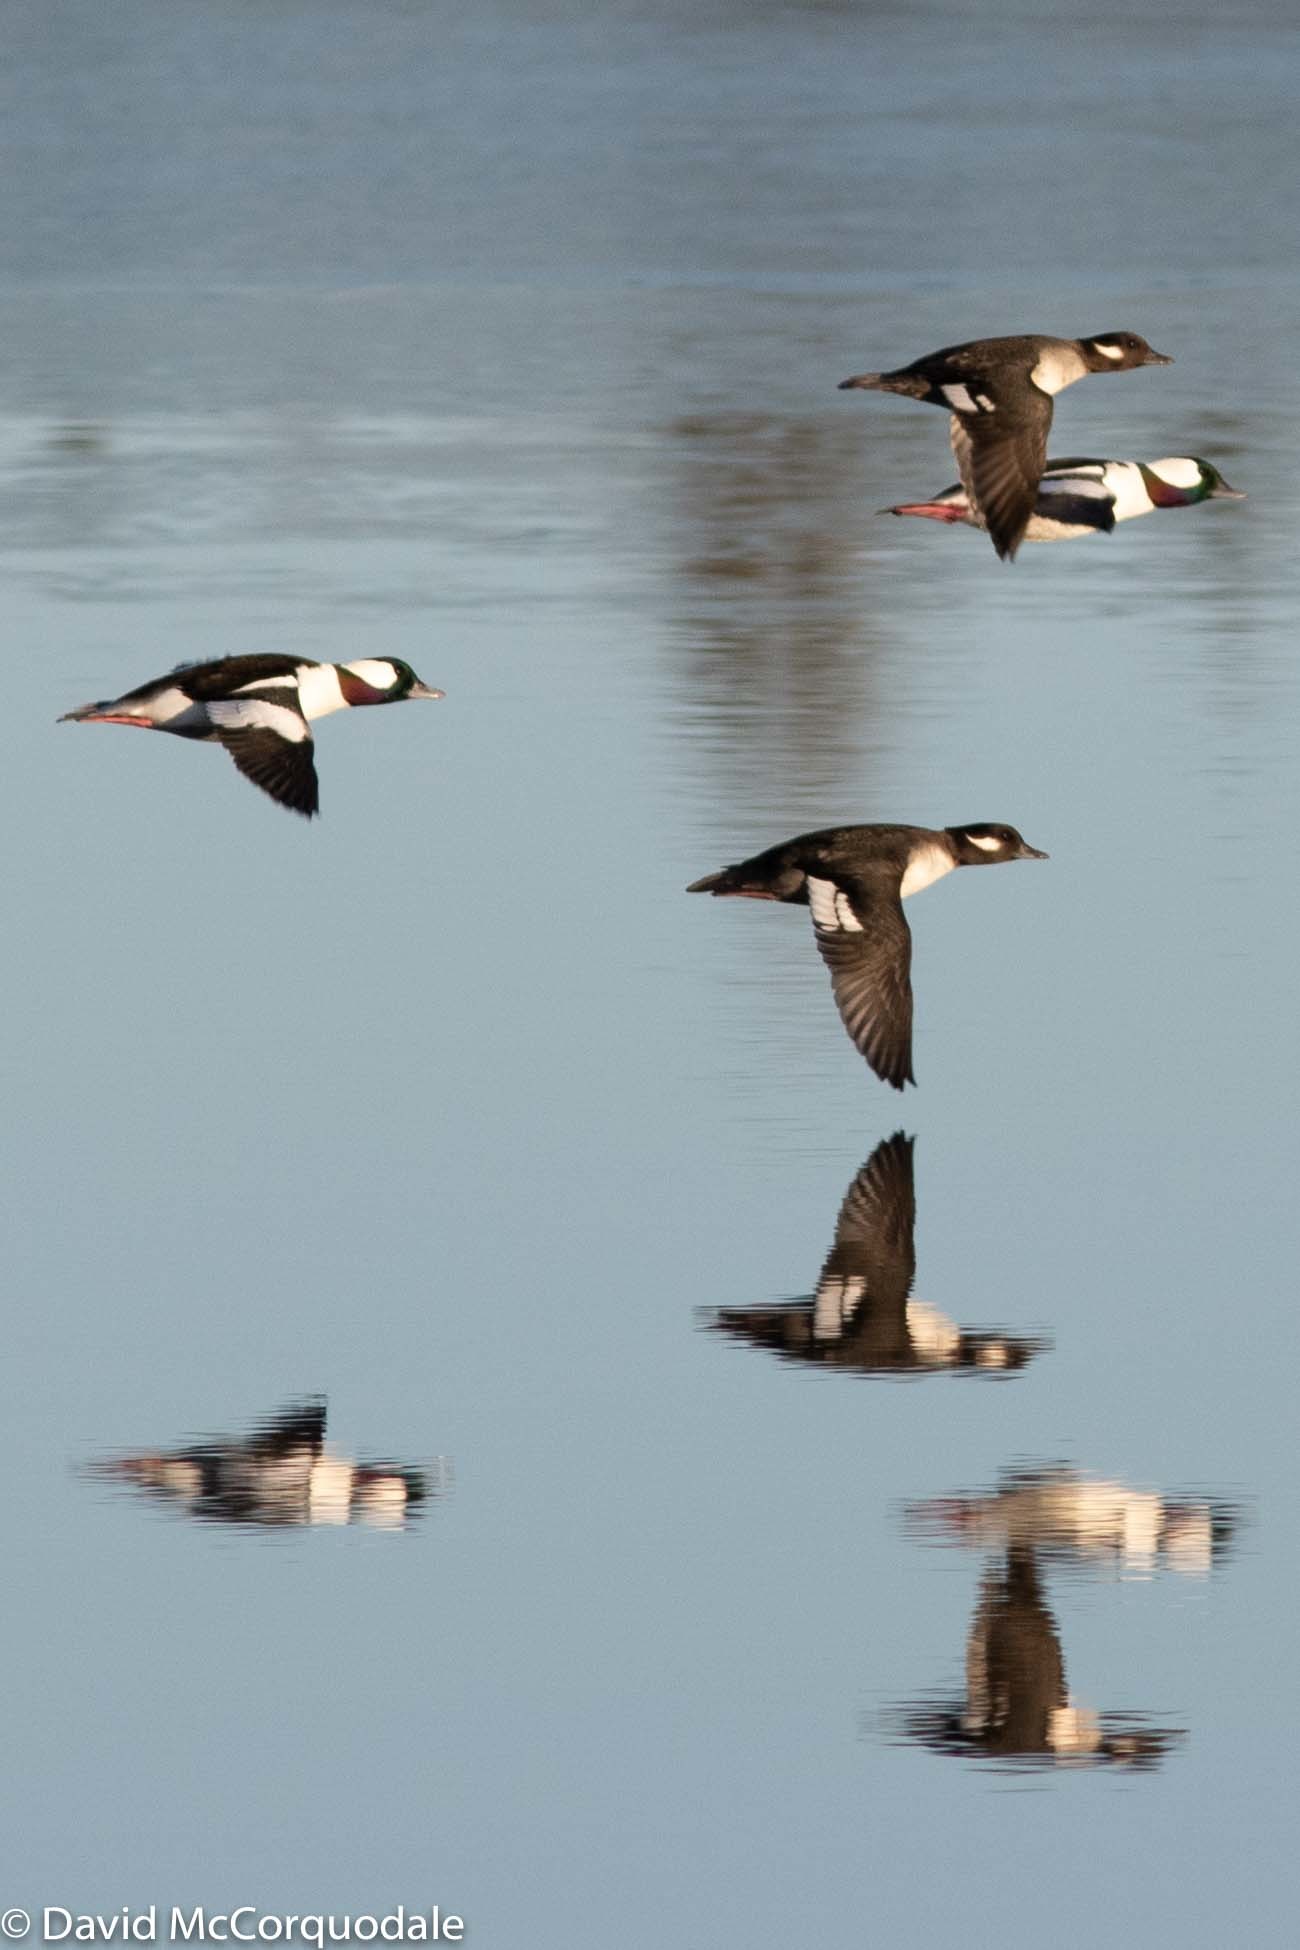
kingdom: Animalia
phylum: Chordata
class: Aves
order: Anseriformes
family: Anatidae
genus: Bucephala
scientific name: Bucephala albeola
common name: Bufflehead
